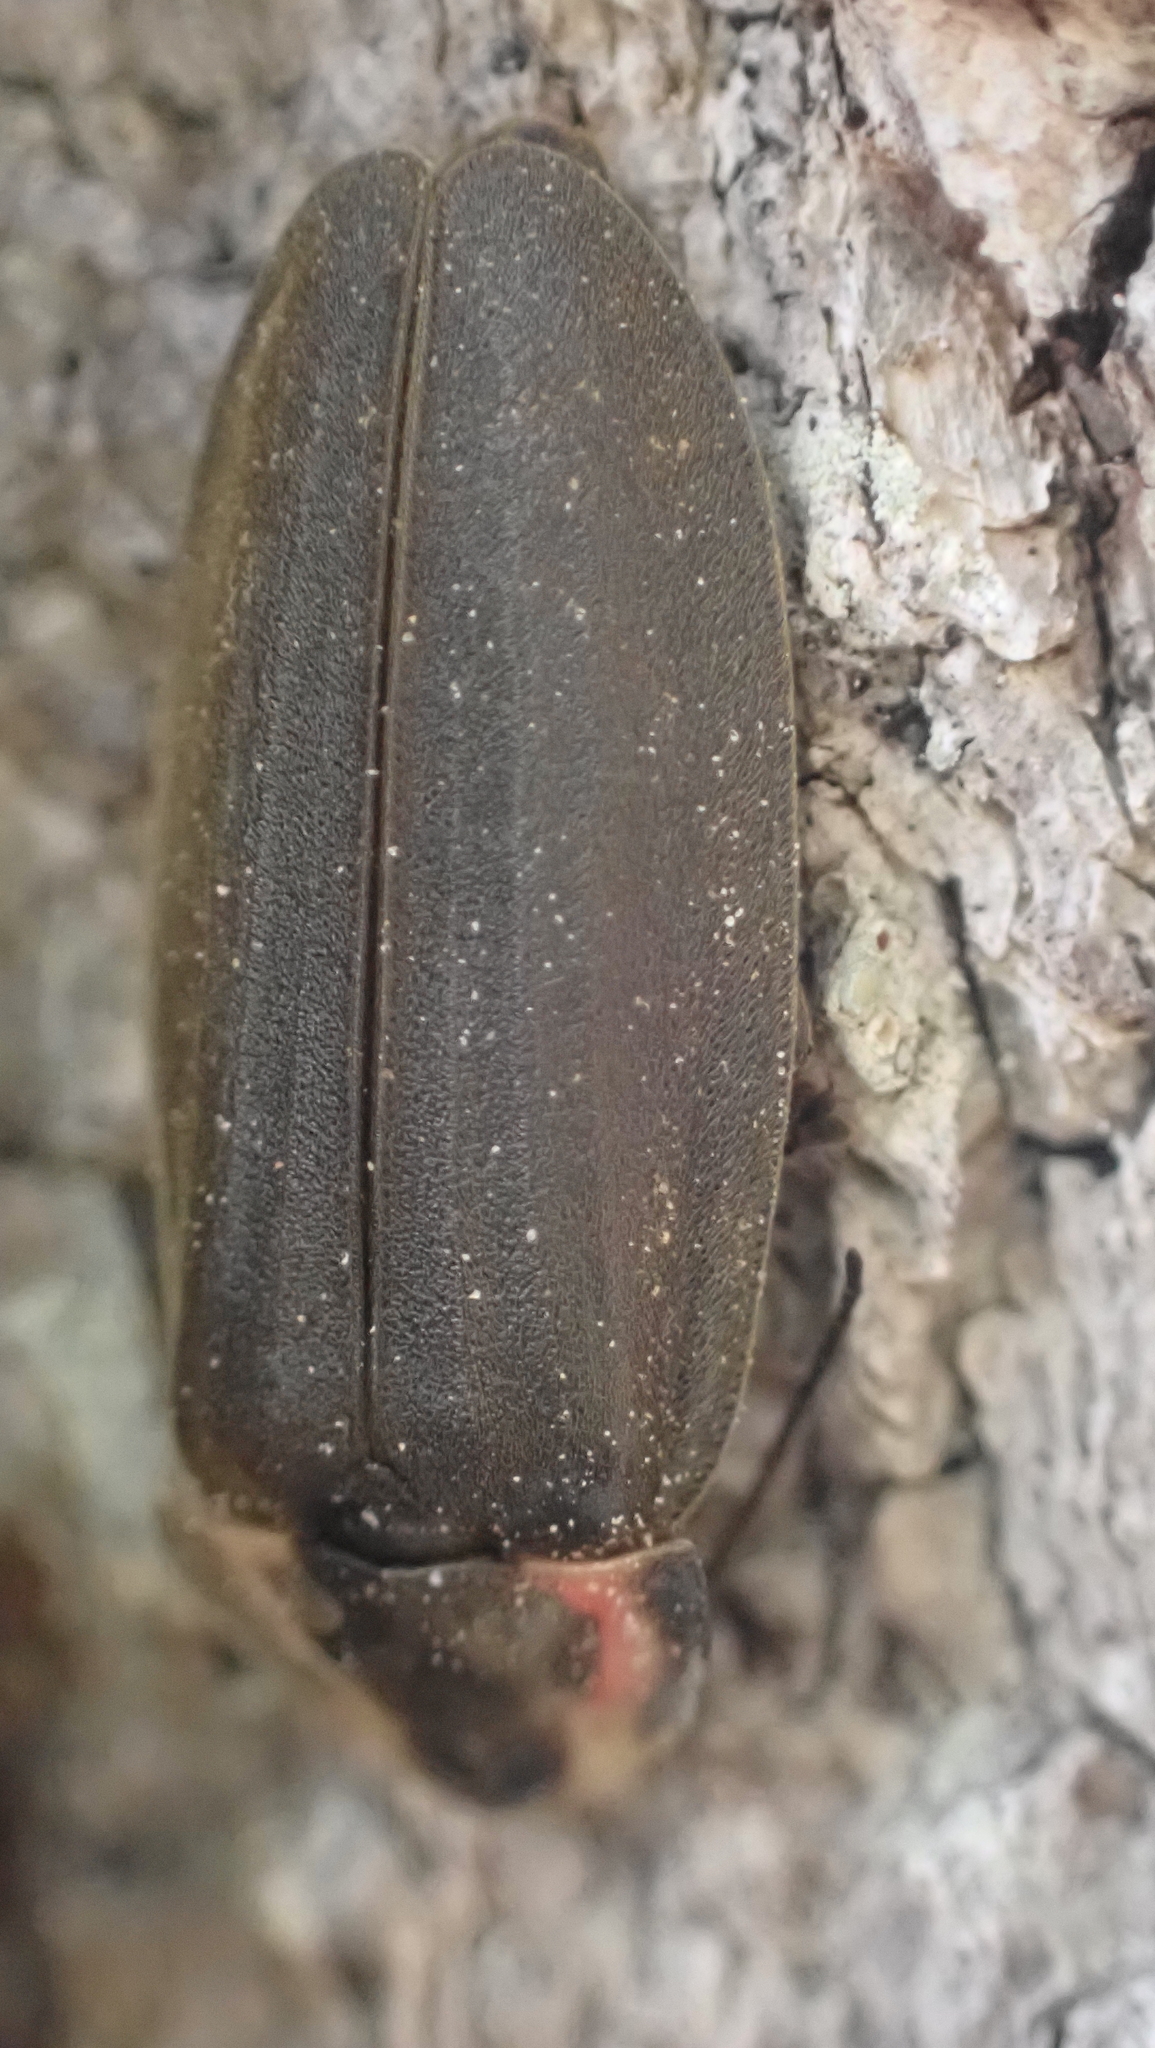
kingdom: Animalia
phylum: Arthropoda
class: Insecta
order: Coleoptera
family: Lampyridae
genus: Photinus
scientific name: Photinus corrusca
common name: Winter firefly
